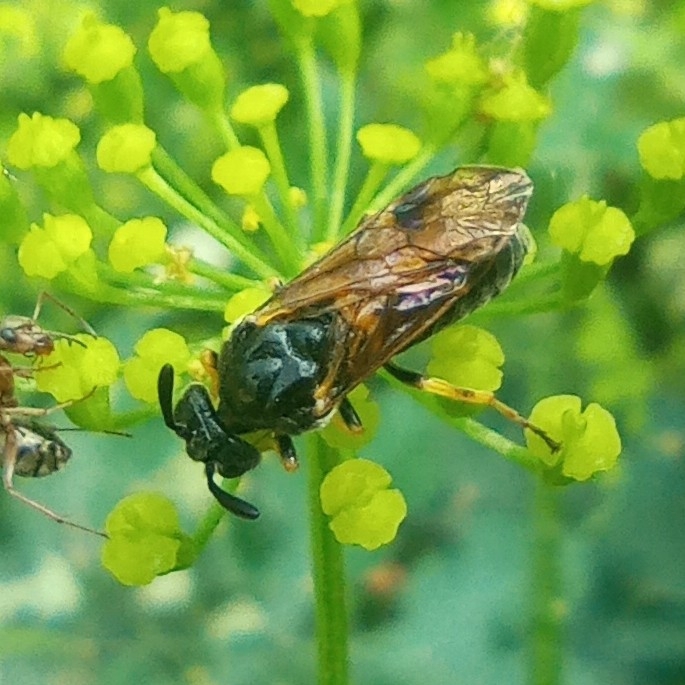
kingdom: Animalia
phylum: Arthropoda
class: Insecta
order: Hymenoptera
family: Argidae
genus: Arge
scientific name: Arge rustica
